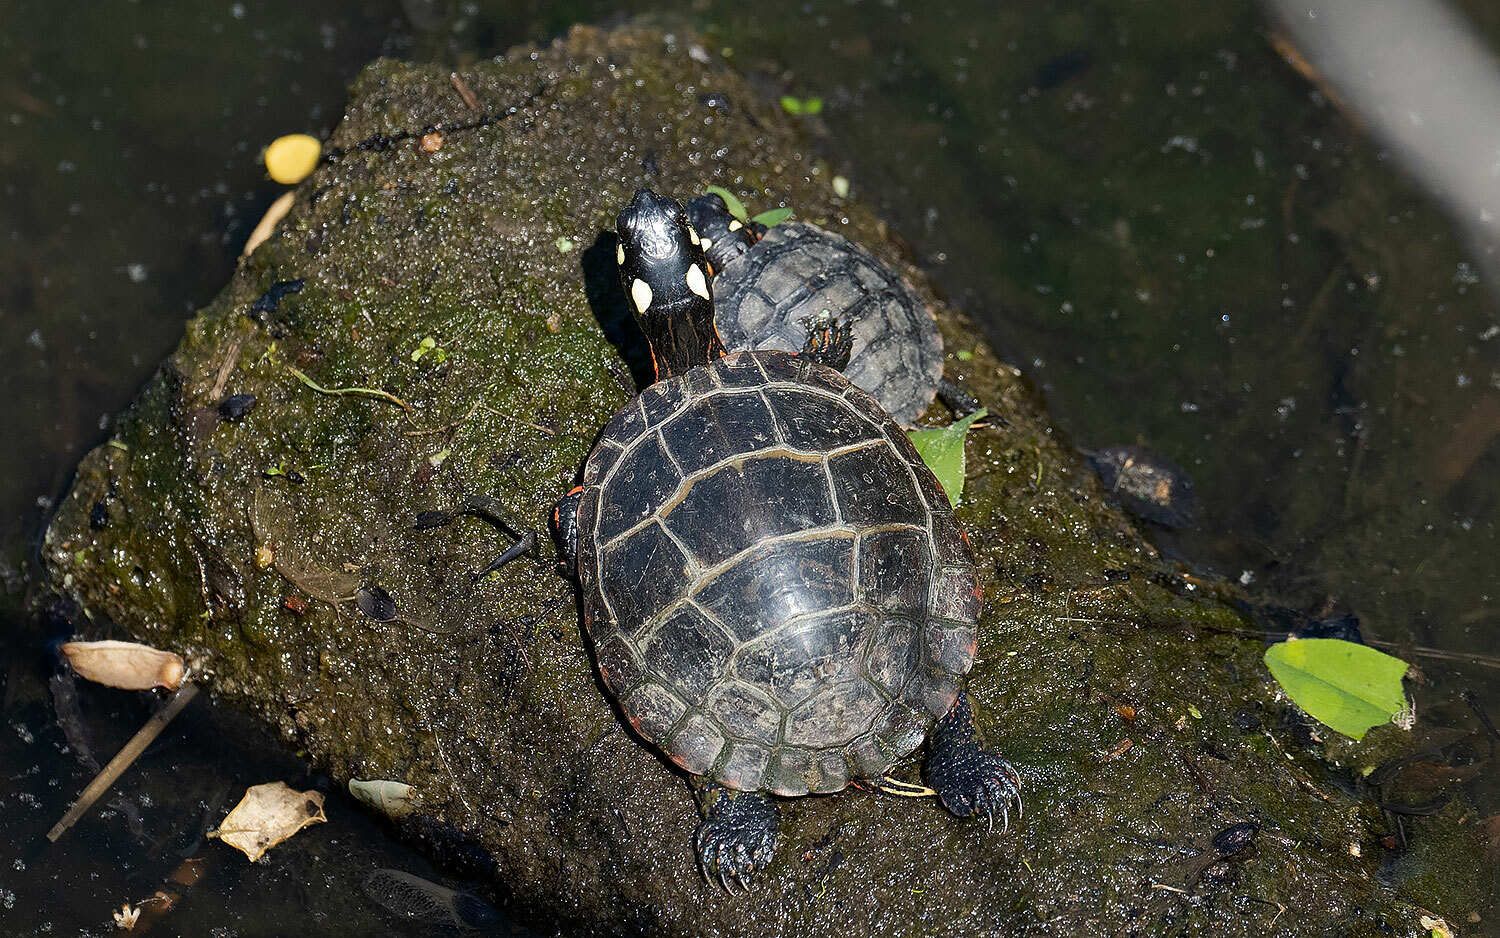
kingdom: Animalia
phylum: Chordata
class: Testudines
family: Emydidae
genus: Chrysemys
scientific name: Chrysemys picta
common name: Painted turtle
